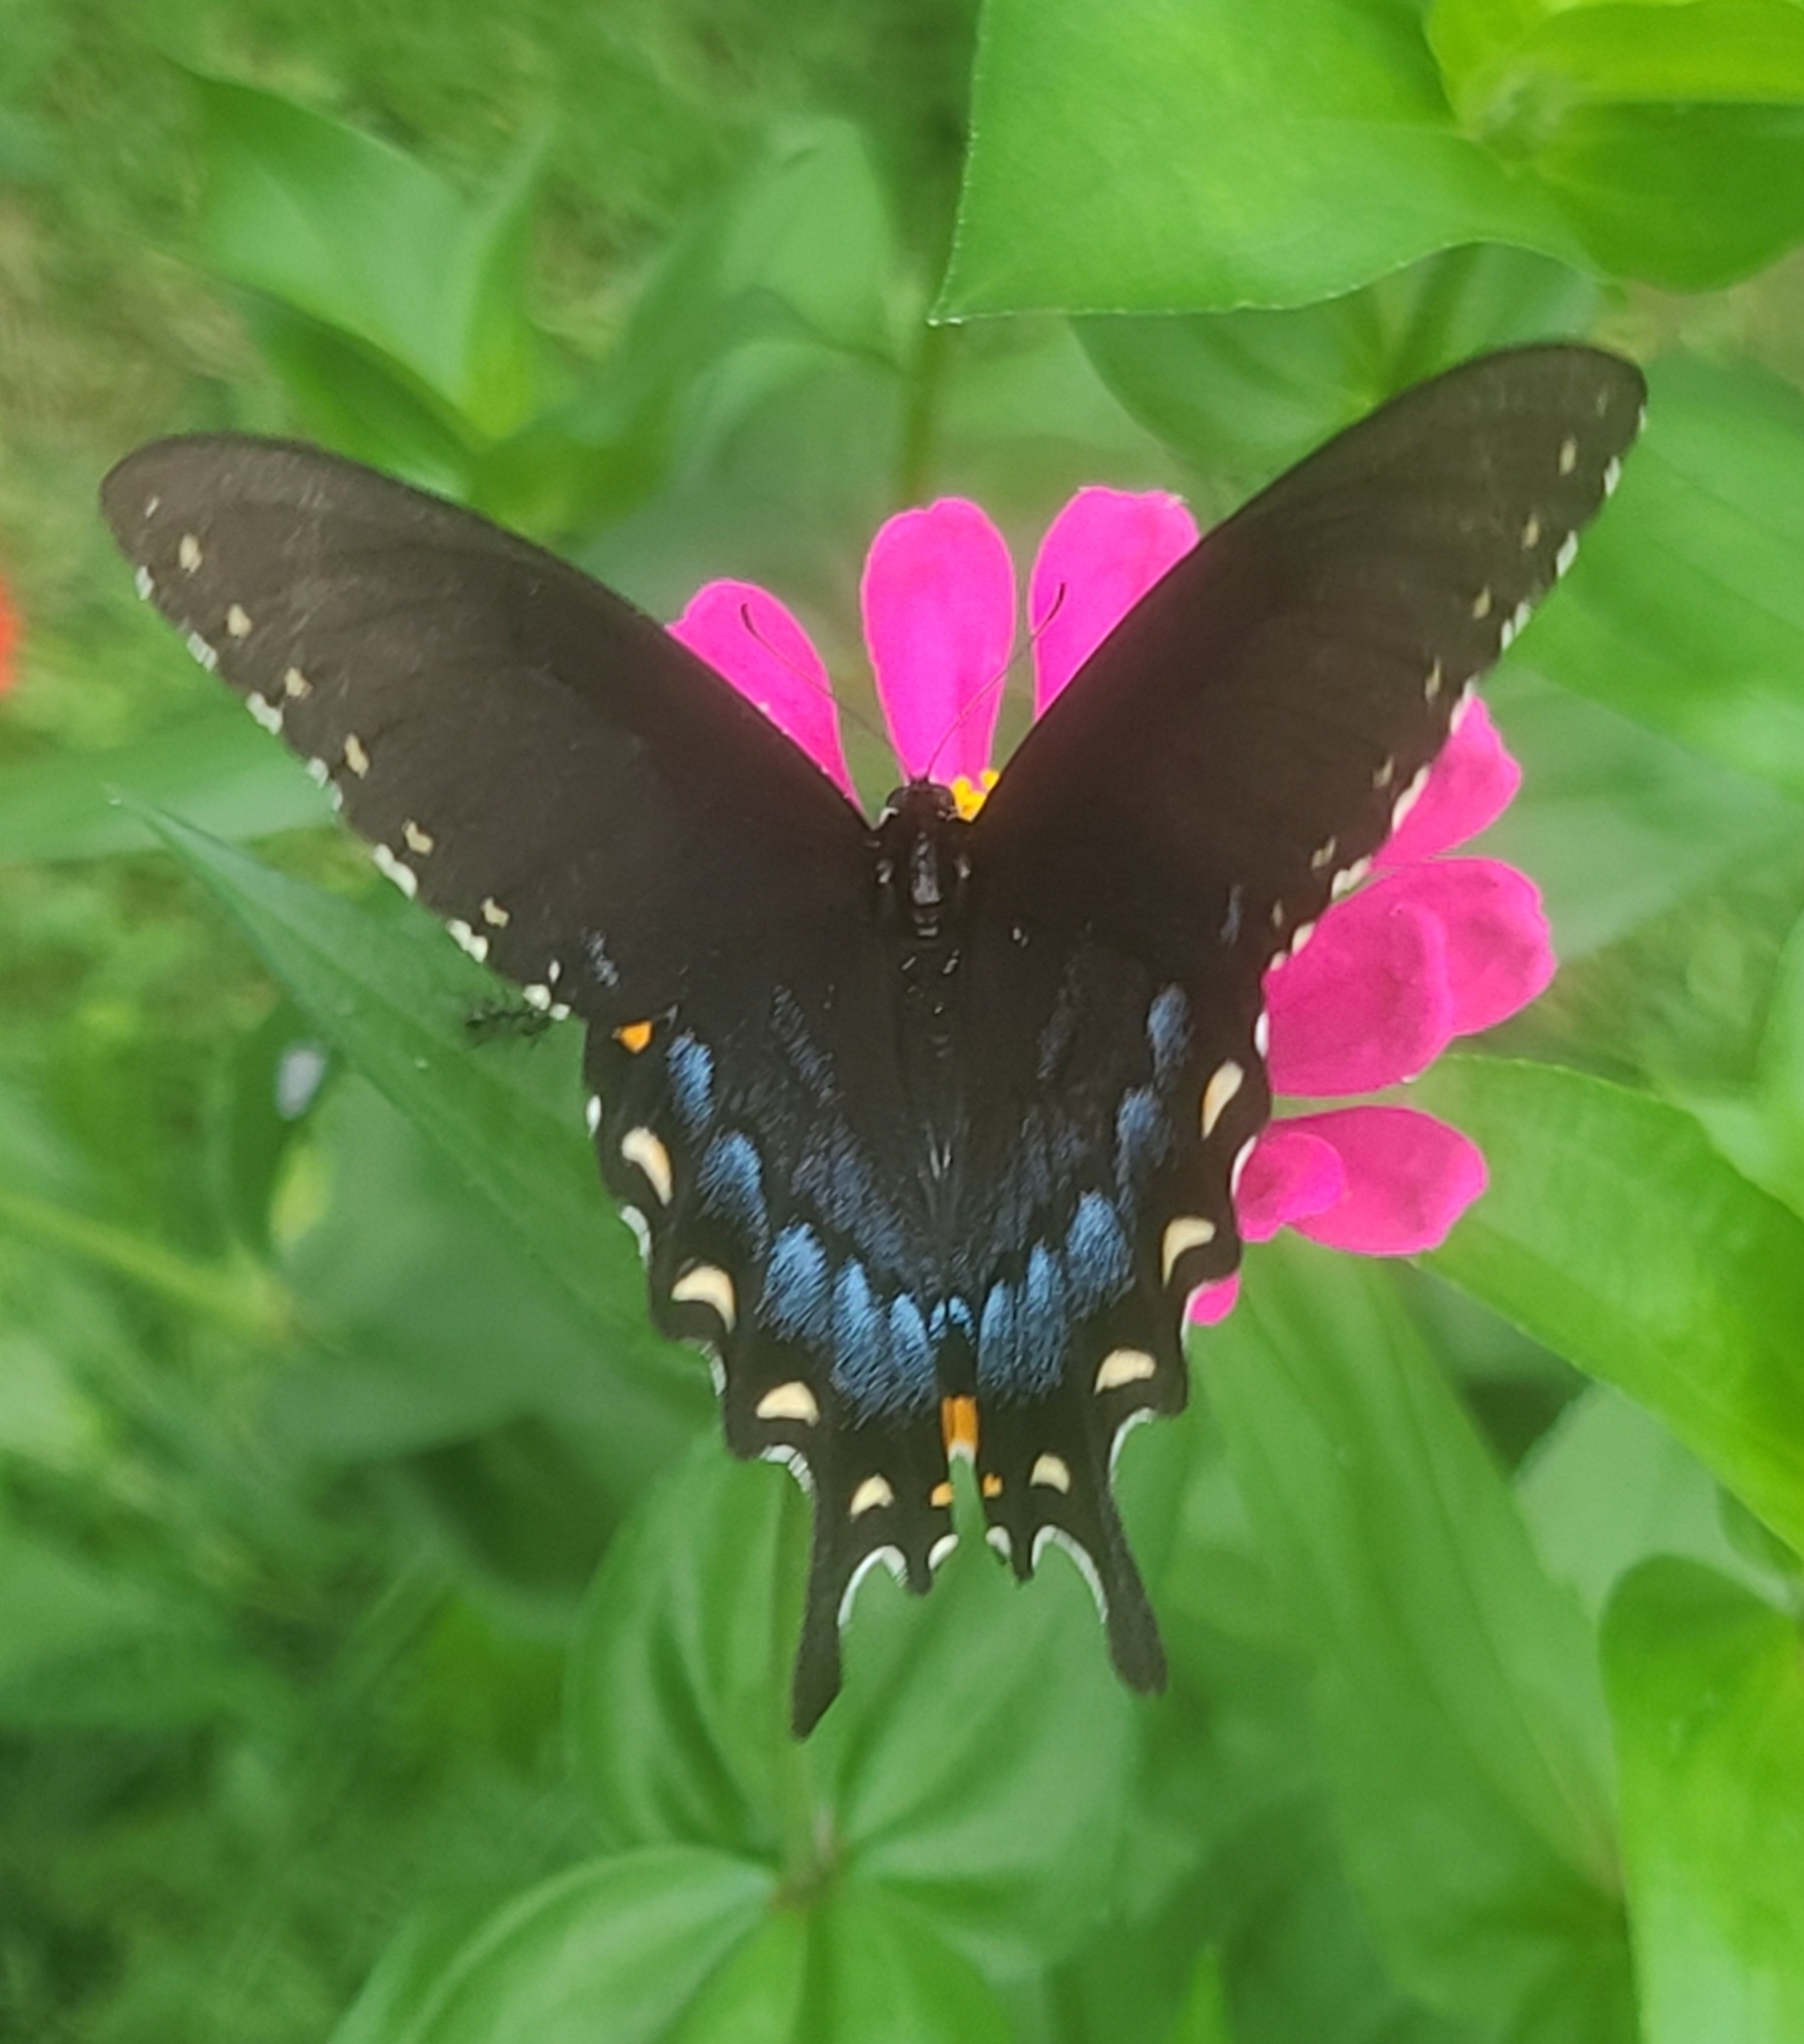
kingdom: Animalia
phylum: Arthropoda
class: Insecta
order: Lepidoptera
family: Papilionidae
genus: Papilio
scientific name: Papilio glaucus
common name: Tiger swallowtail
